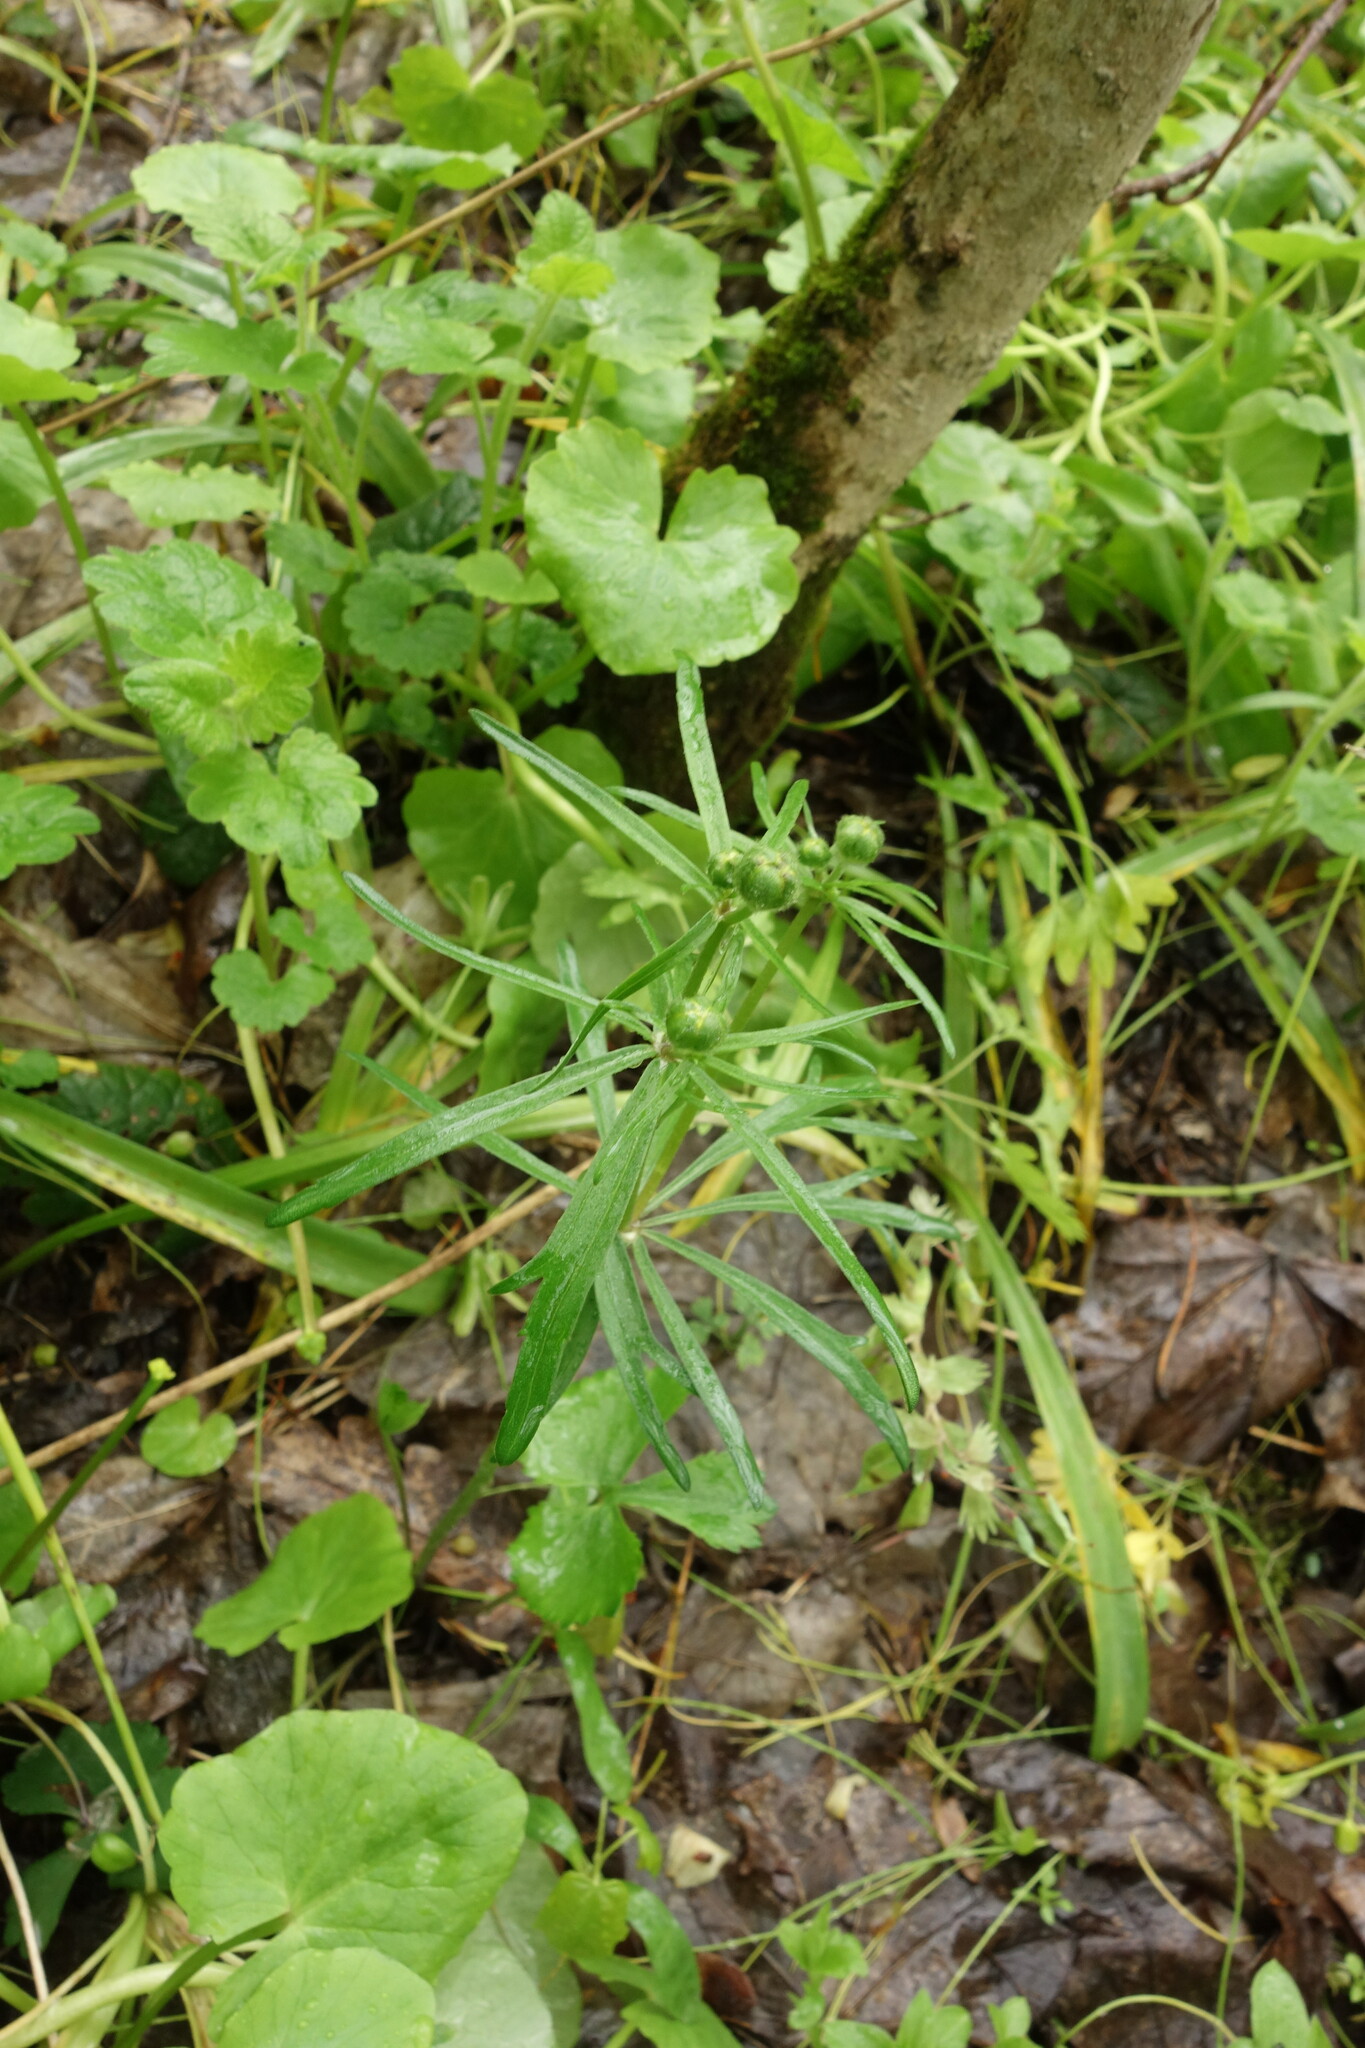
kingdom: Plantae
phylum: Tracheophyta
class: Magnoliopsida
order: Ranunculales
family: Ranunculaceae
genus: Ranunculus
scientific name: Ranunculus auricomus
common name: Goldilocks buttercup
